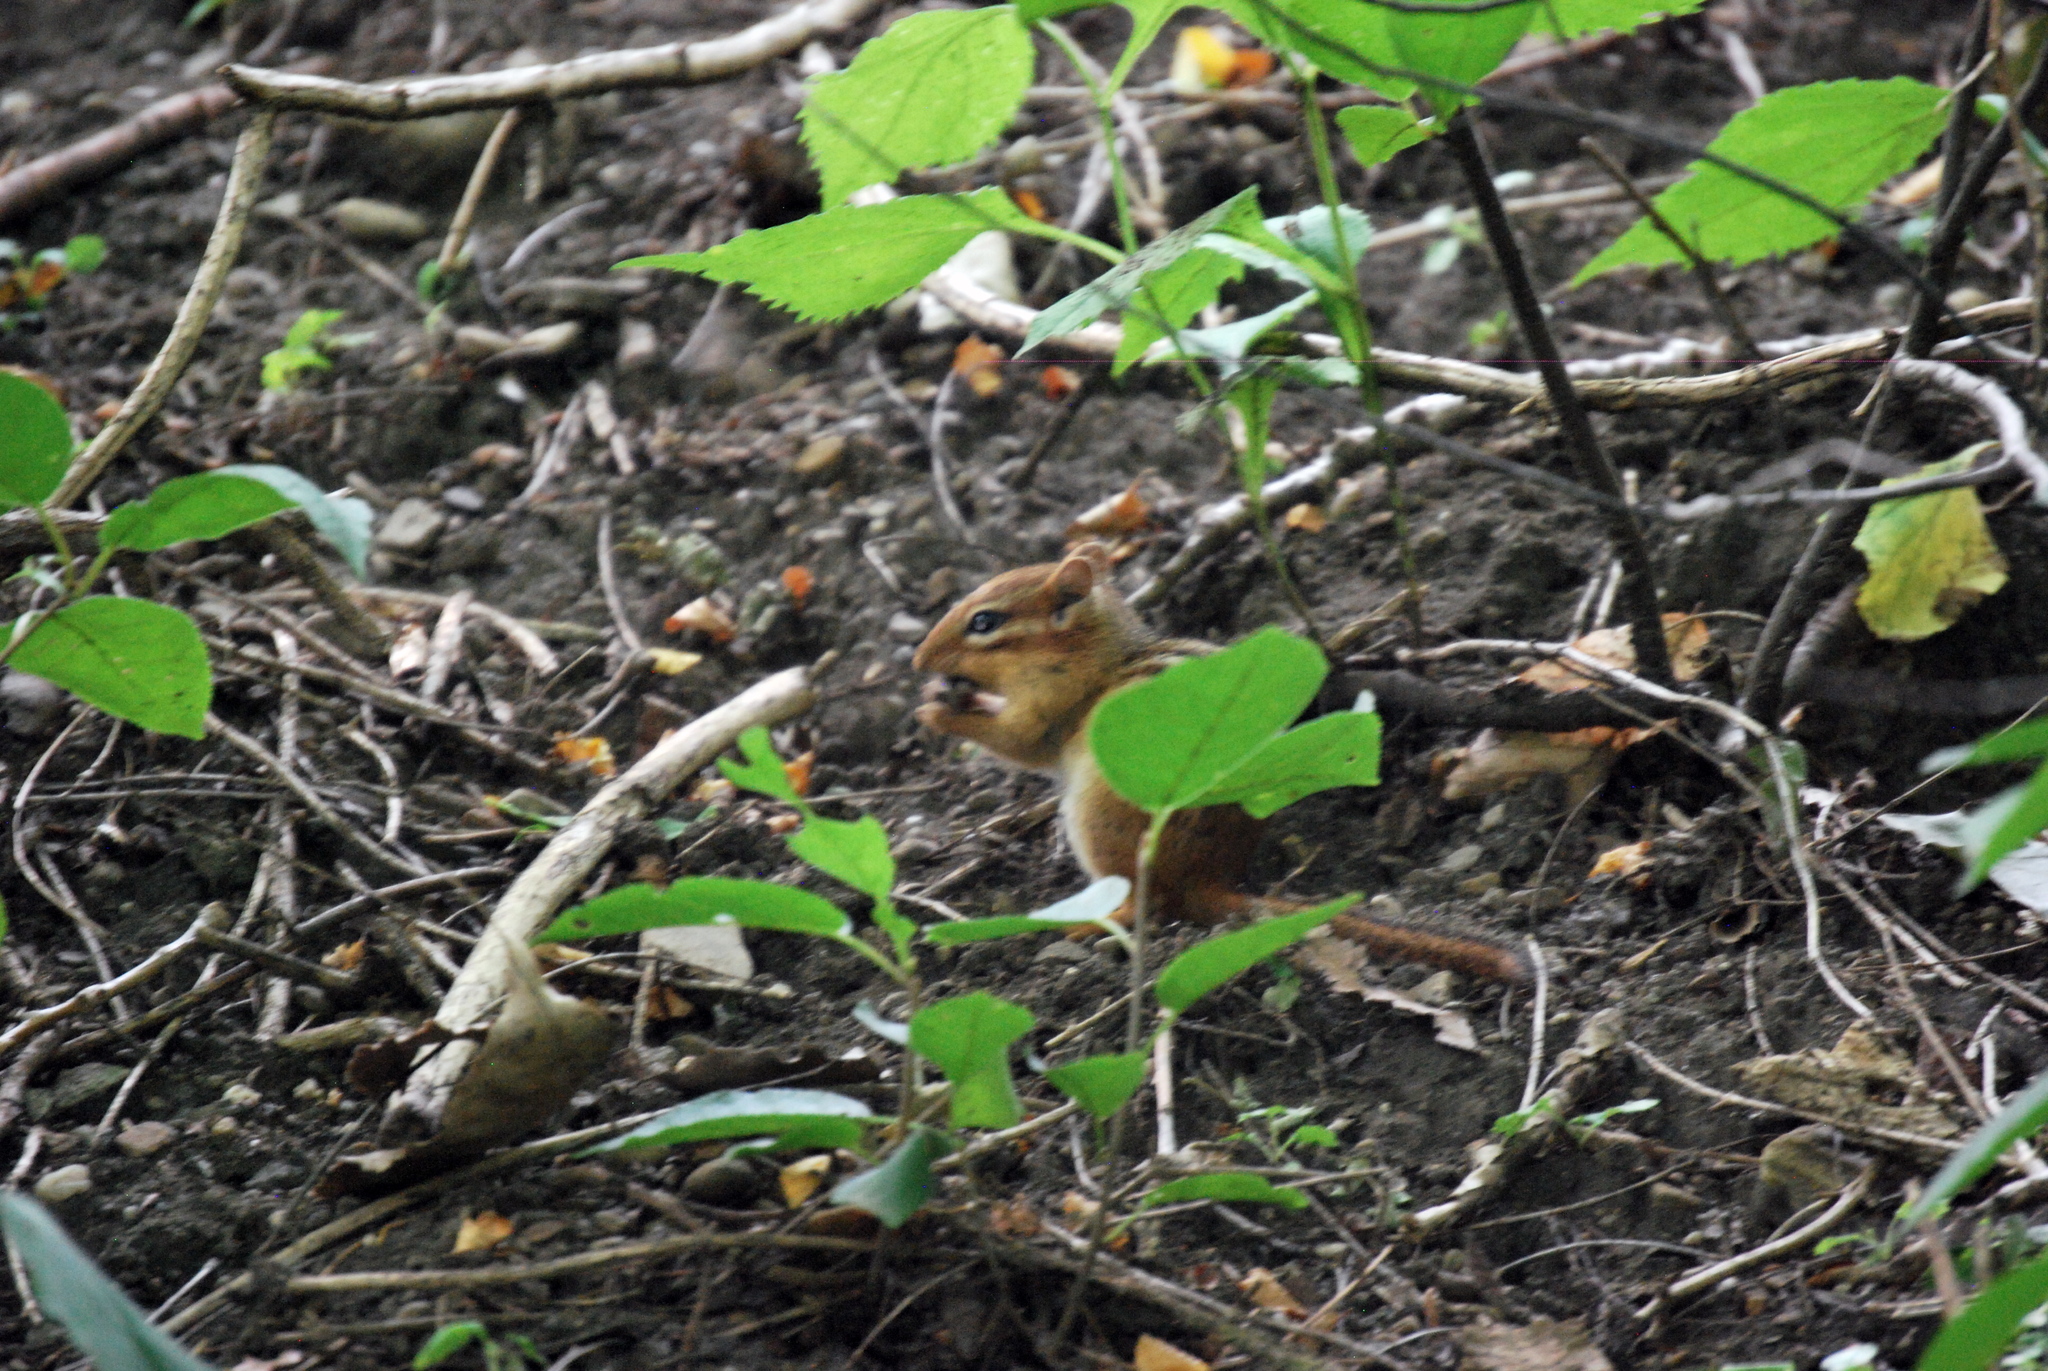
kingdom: Animalia
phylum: Chordata
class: Mammalia
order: Rodentia
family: Sciuridae
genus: Tamias
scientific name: Tamias striatus
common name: Eastern chipmunk
